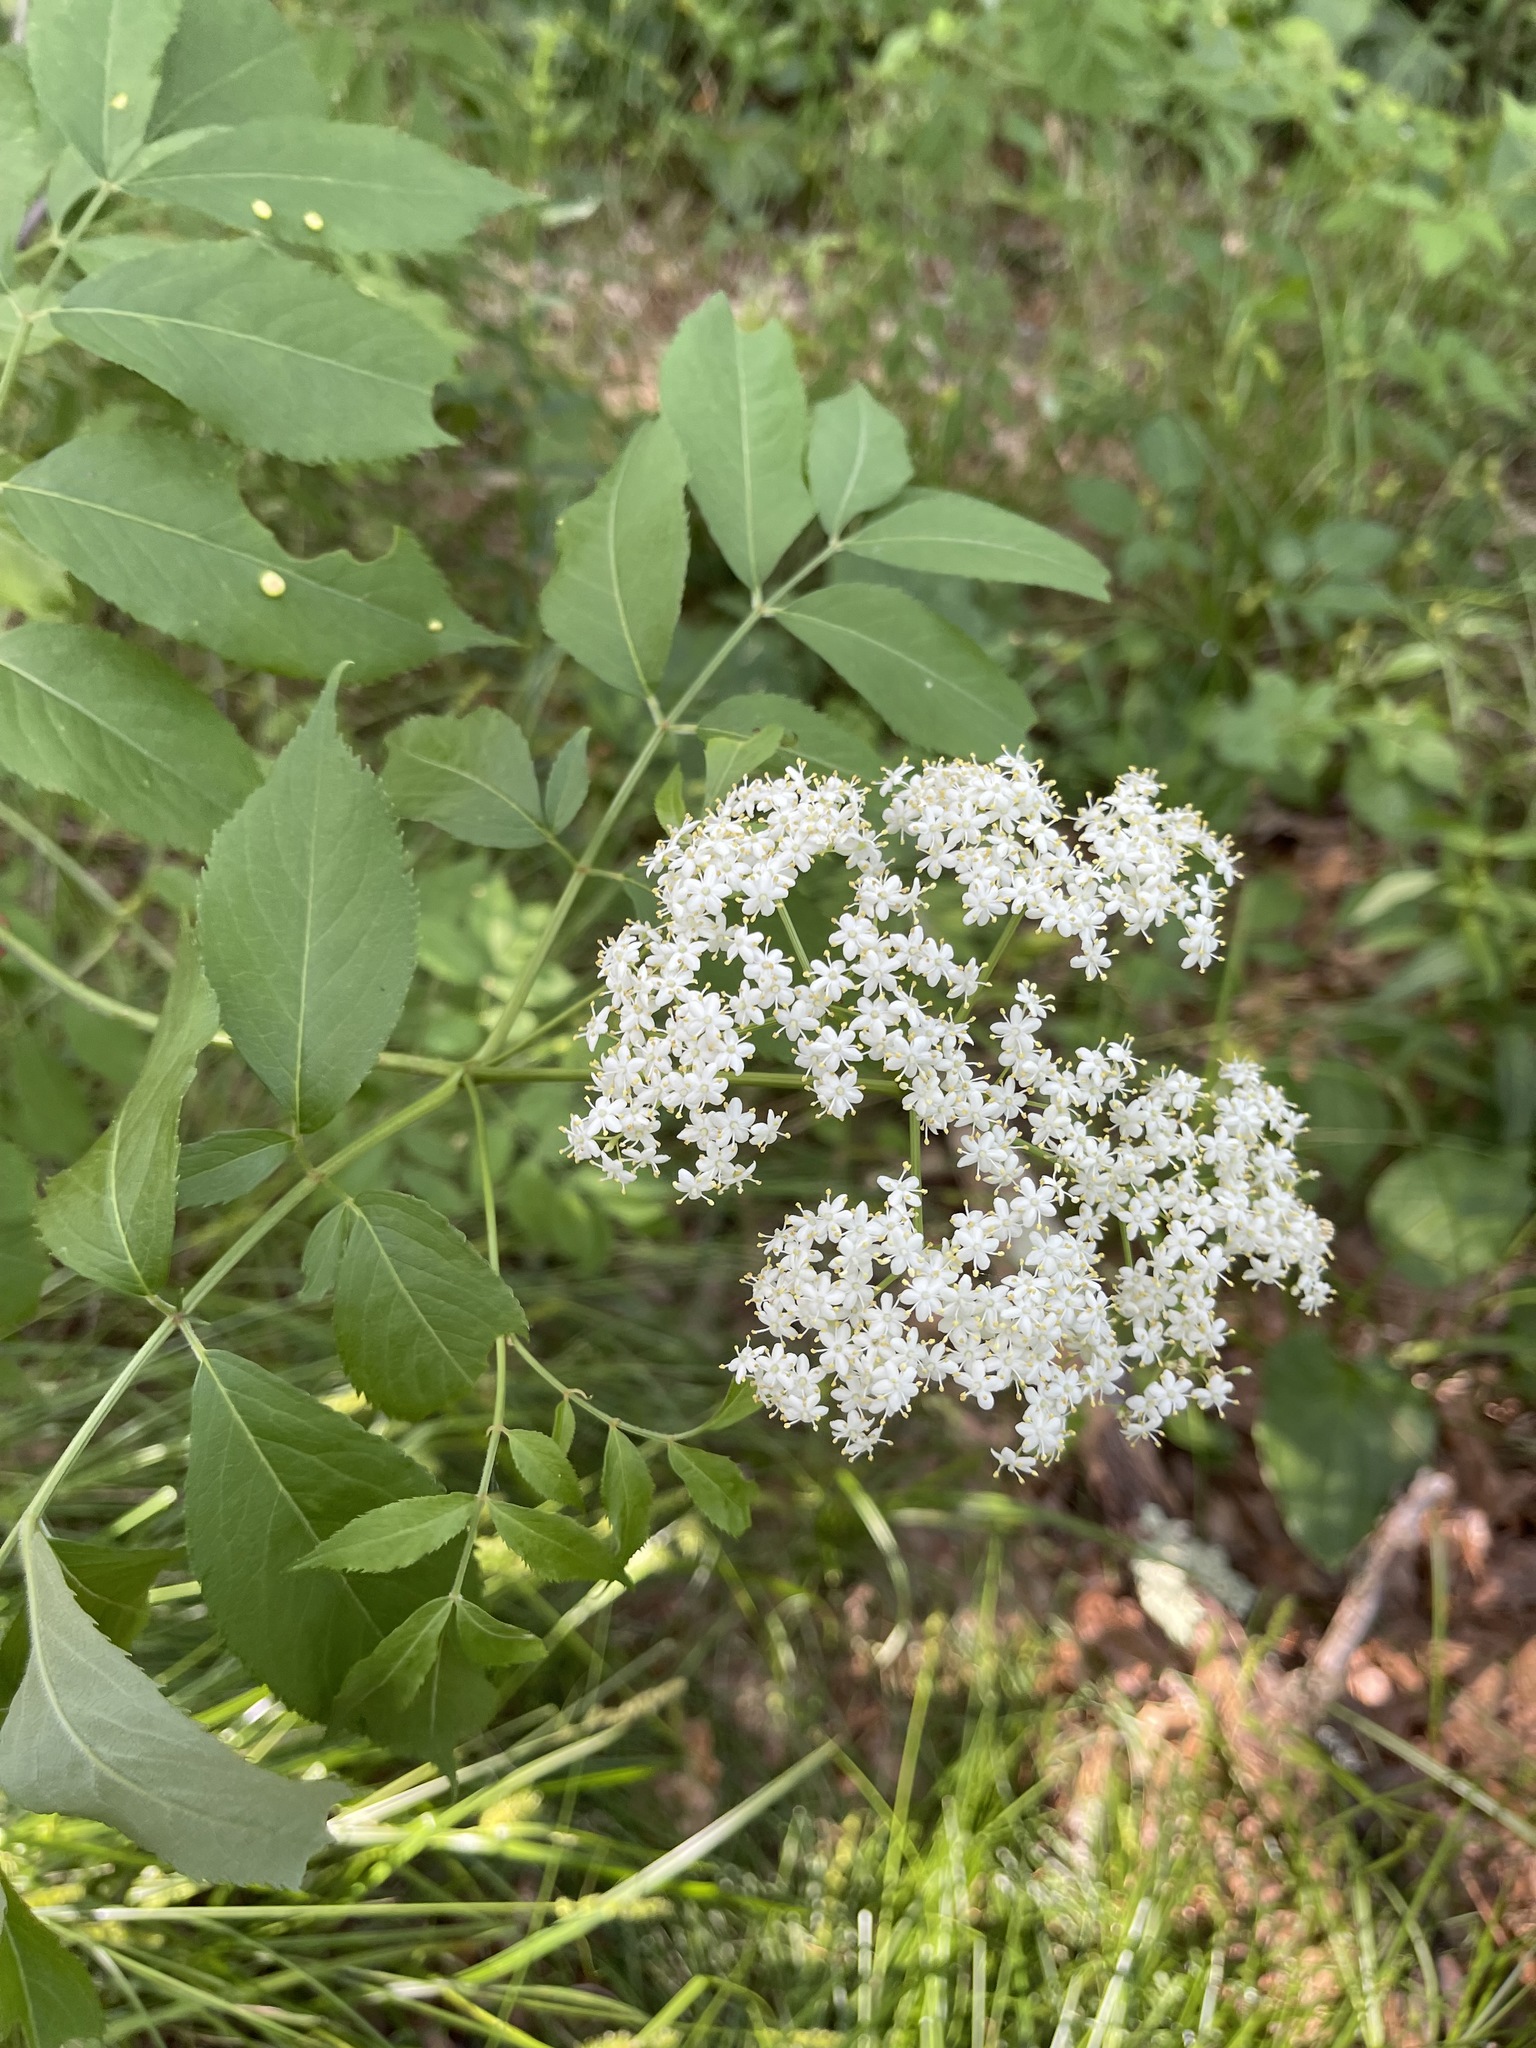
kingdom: Plantae
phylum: Tracheophyta
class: Magnoliopsida
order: Dipsacales
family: Viburnaceae
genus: Sambucus
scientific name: Sambucus canadensis
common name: American elder
